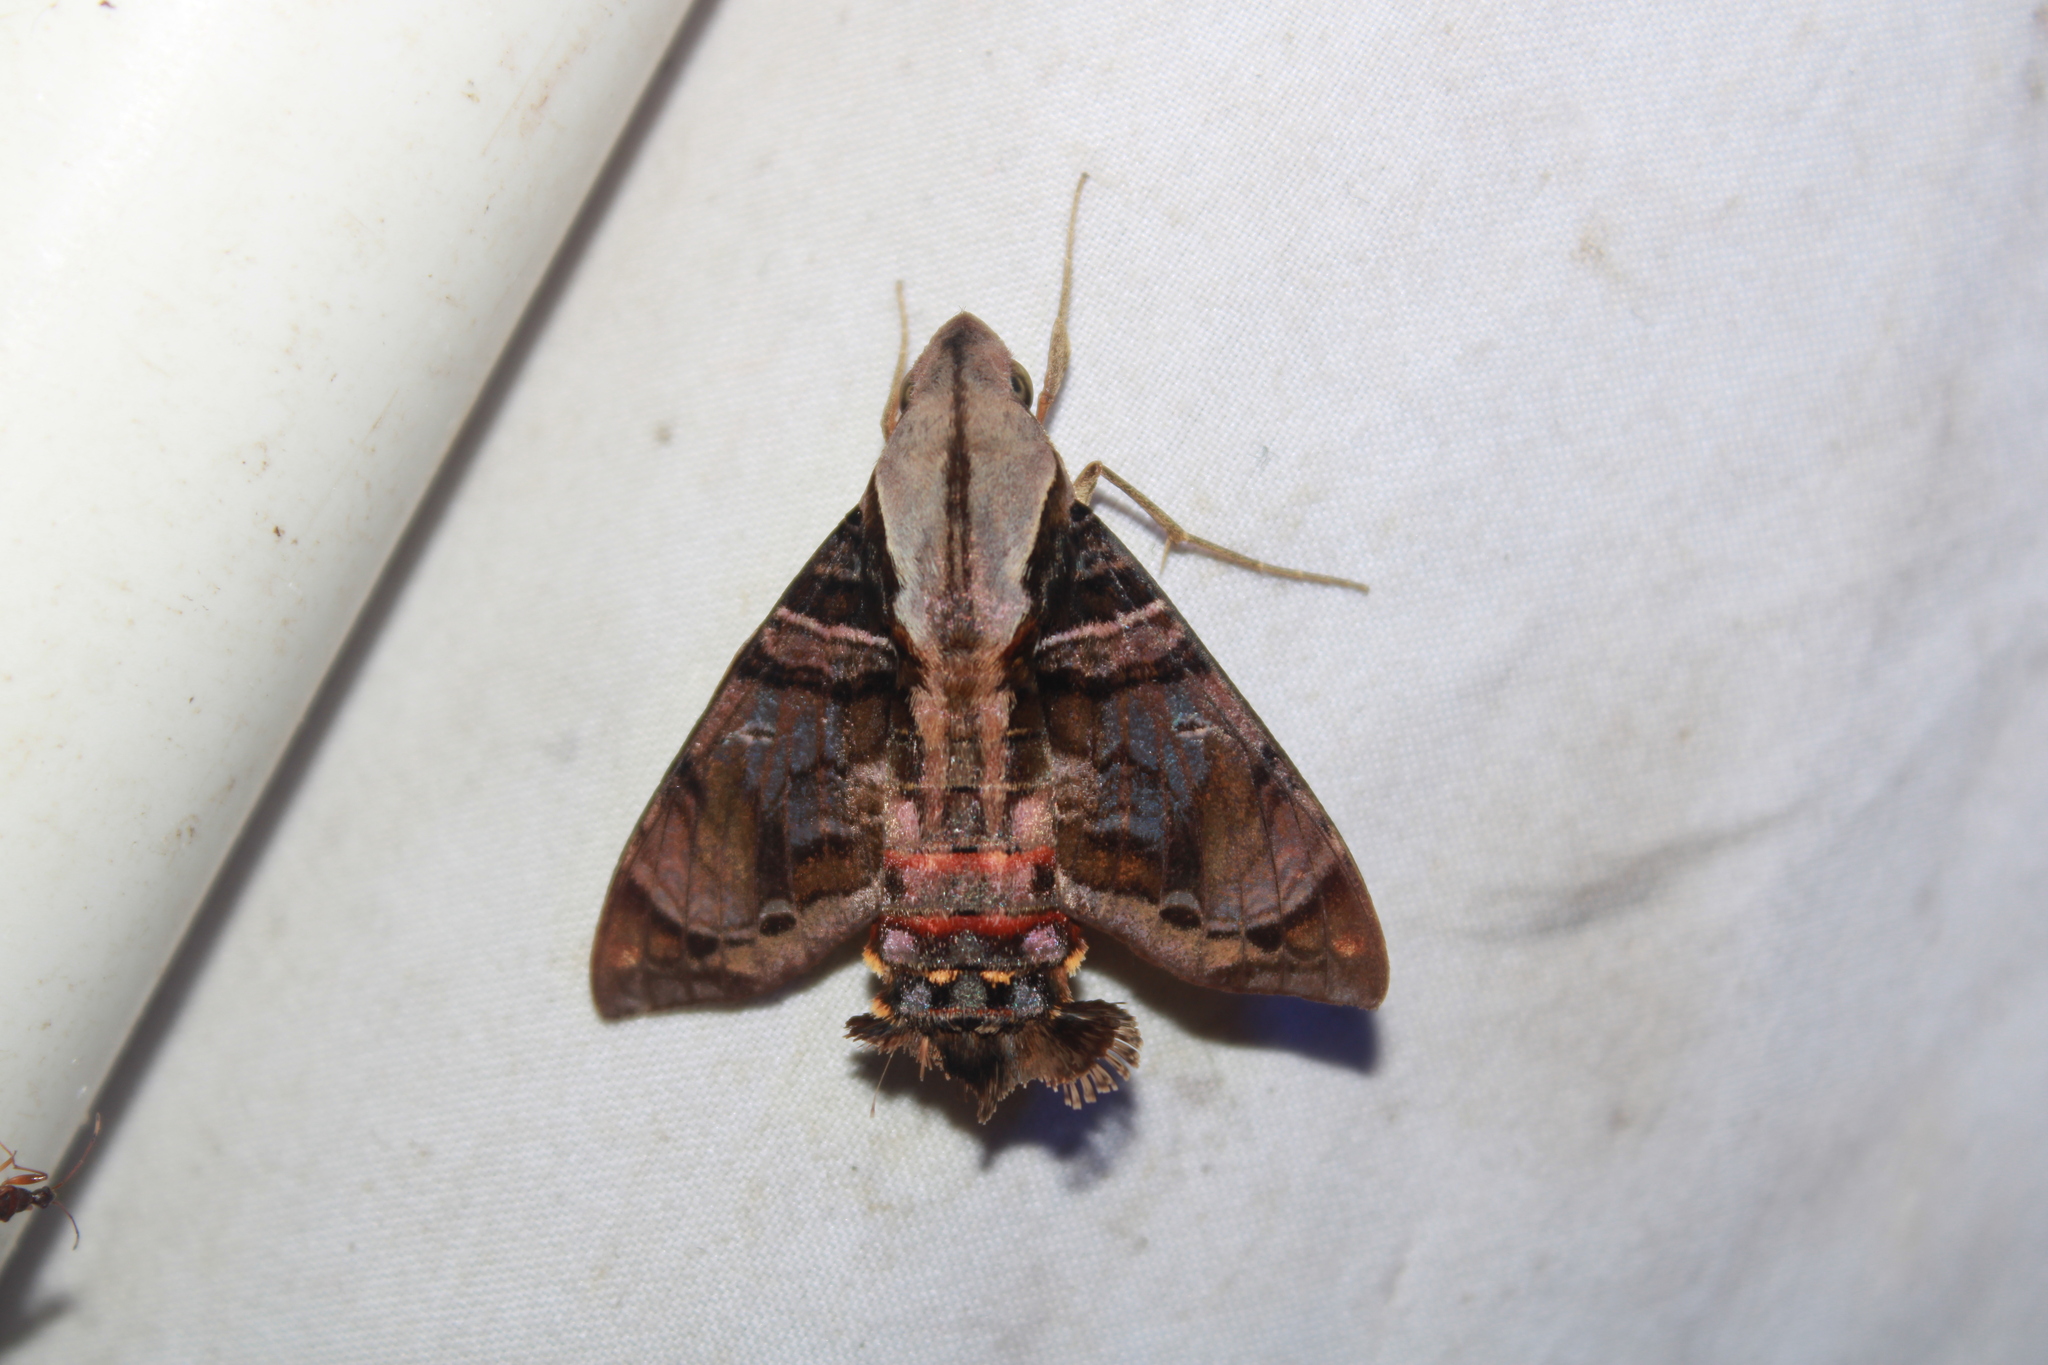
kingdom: Animalia
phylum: Arthropoda
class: Insecta
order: Lepidoptera
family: Sphingidae
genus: Eupyrrhoglossum
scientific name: Eupyrrhoglossum sagra
